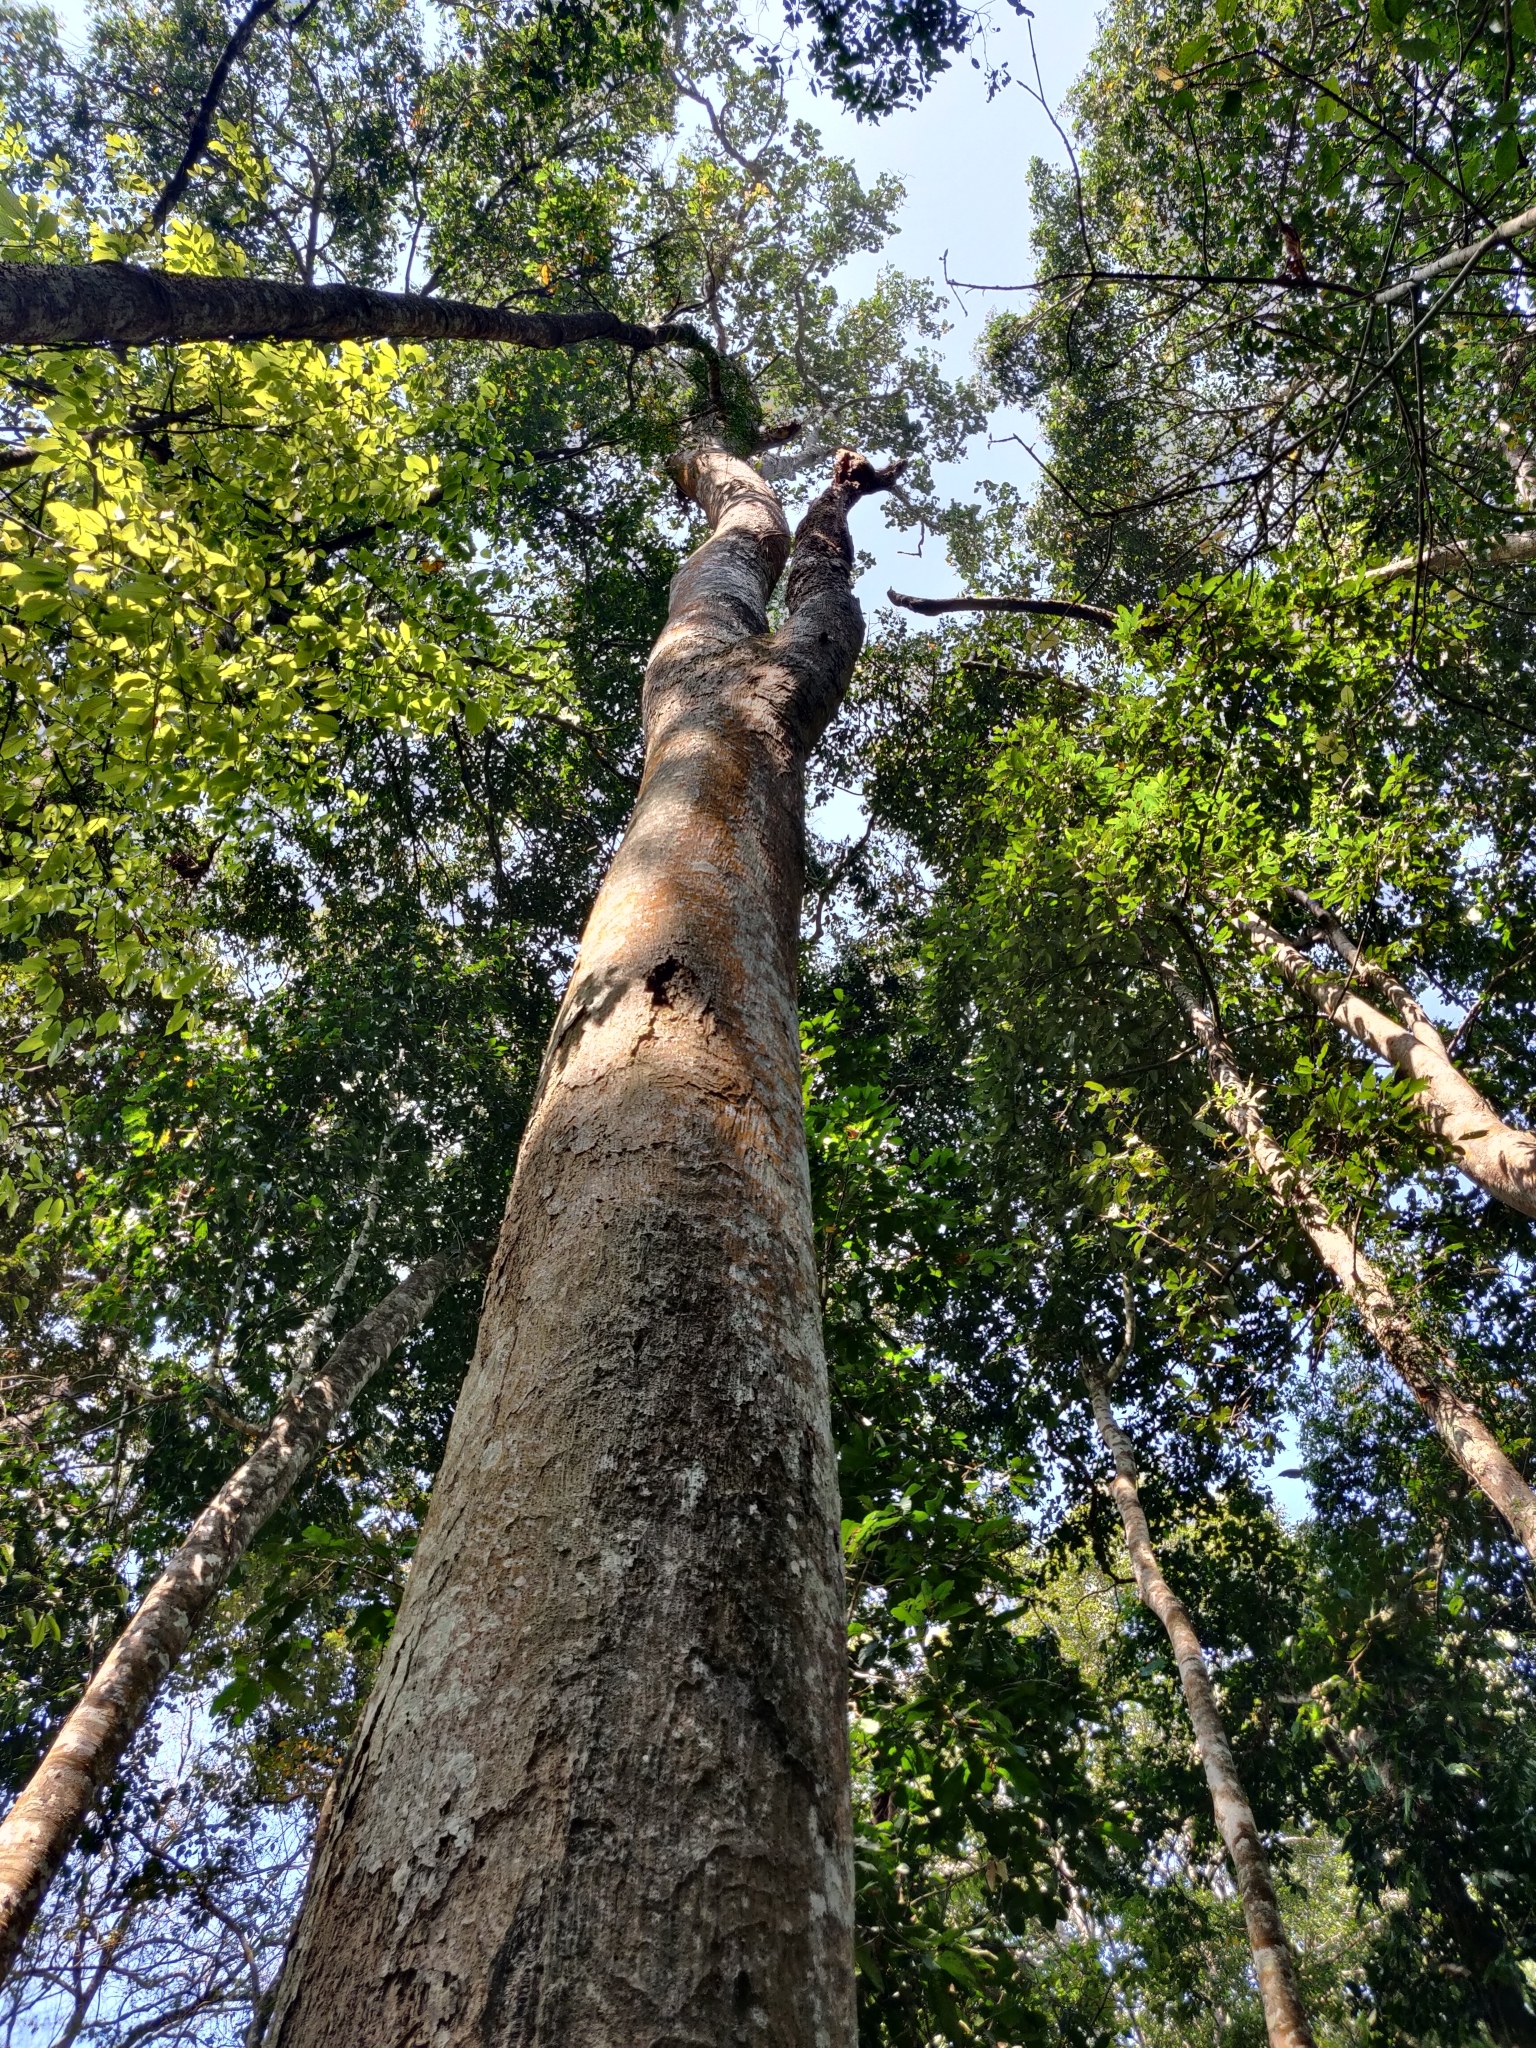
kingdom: Plantae
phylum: Tracheophyta
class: Magnoliopsida
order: Rosales
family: Moraceae
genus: Artocarpus
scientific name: Artocarpus hirsutus
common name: Hairy bread-fruit tree
